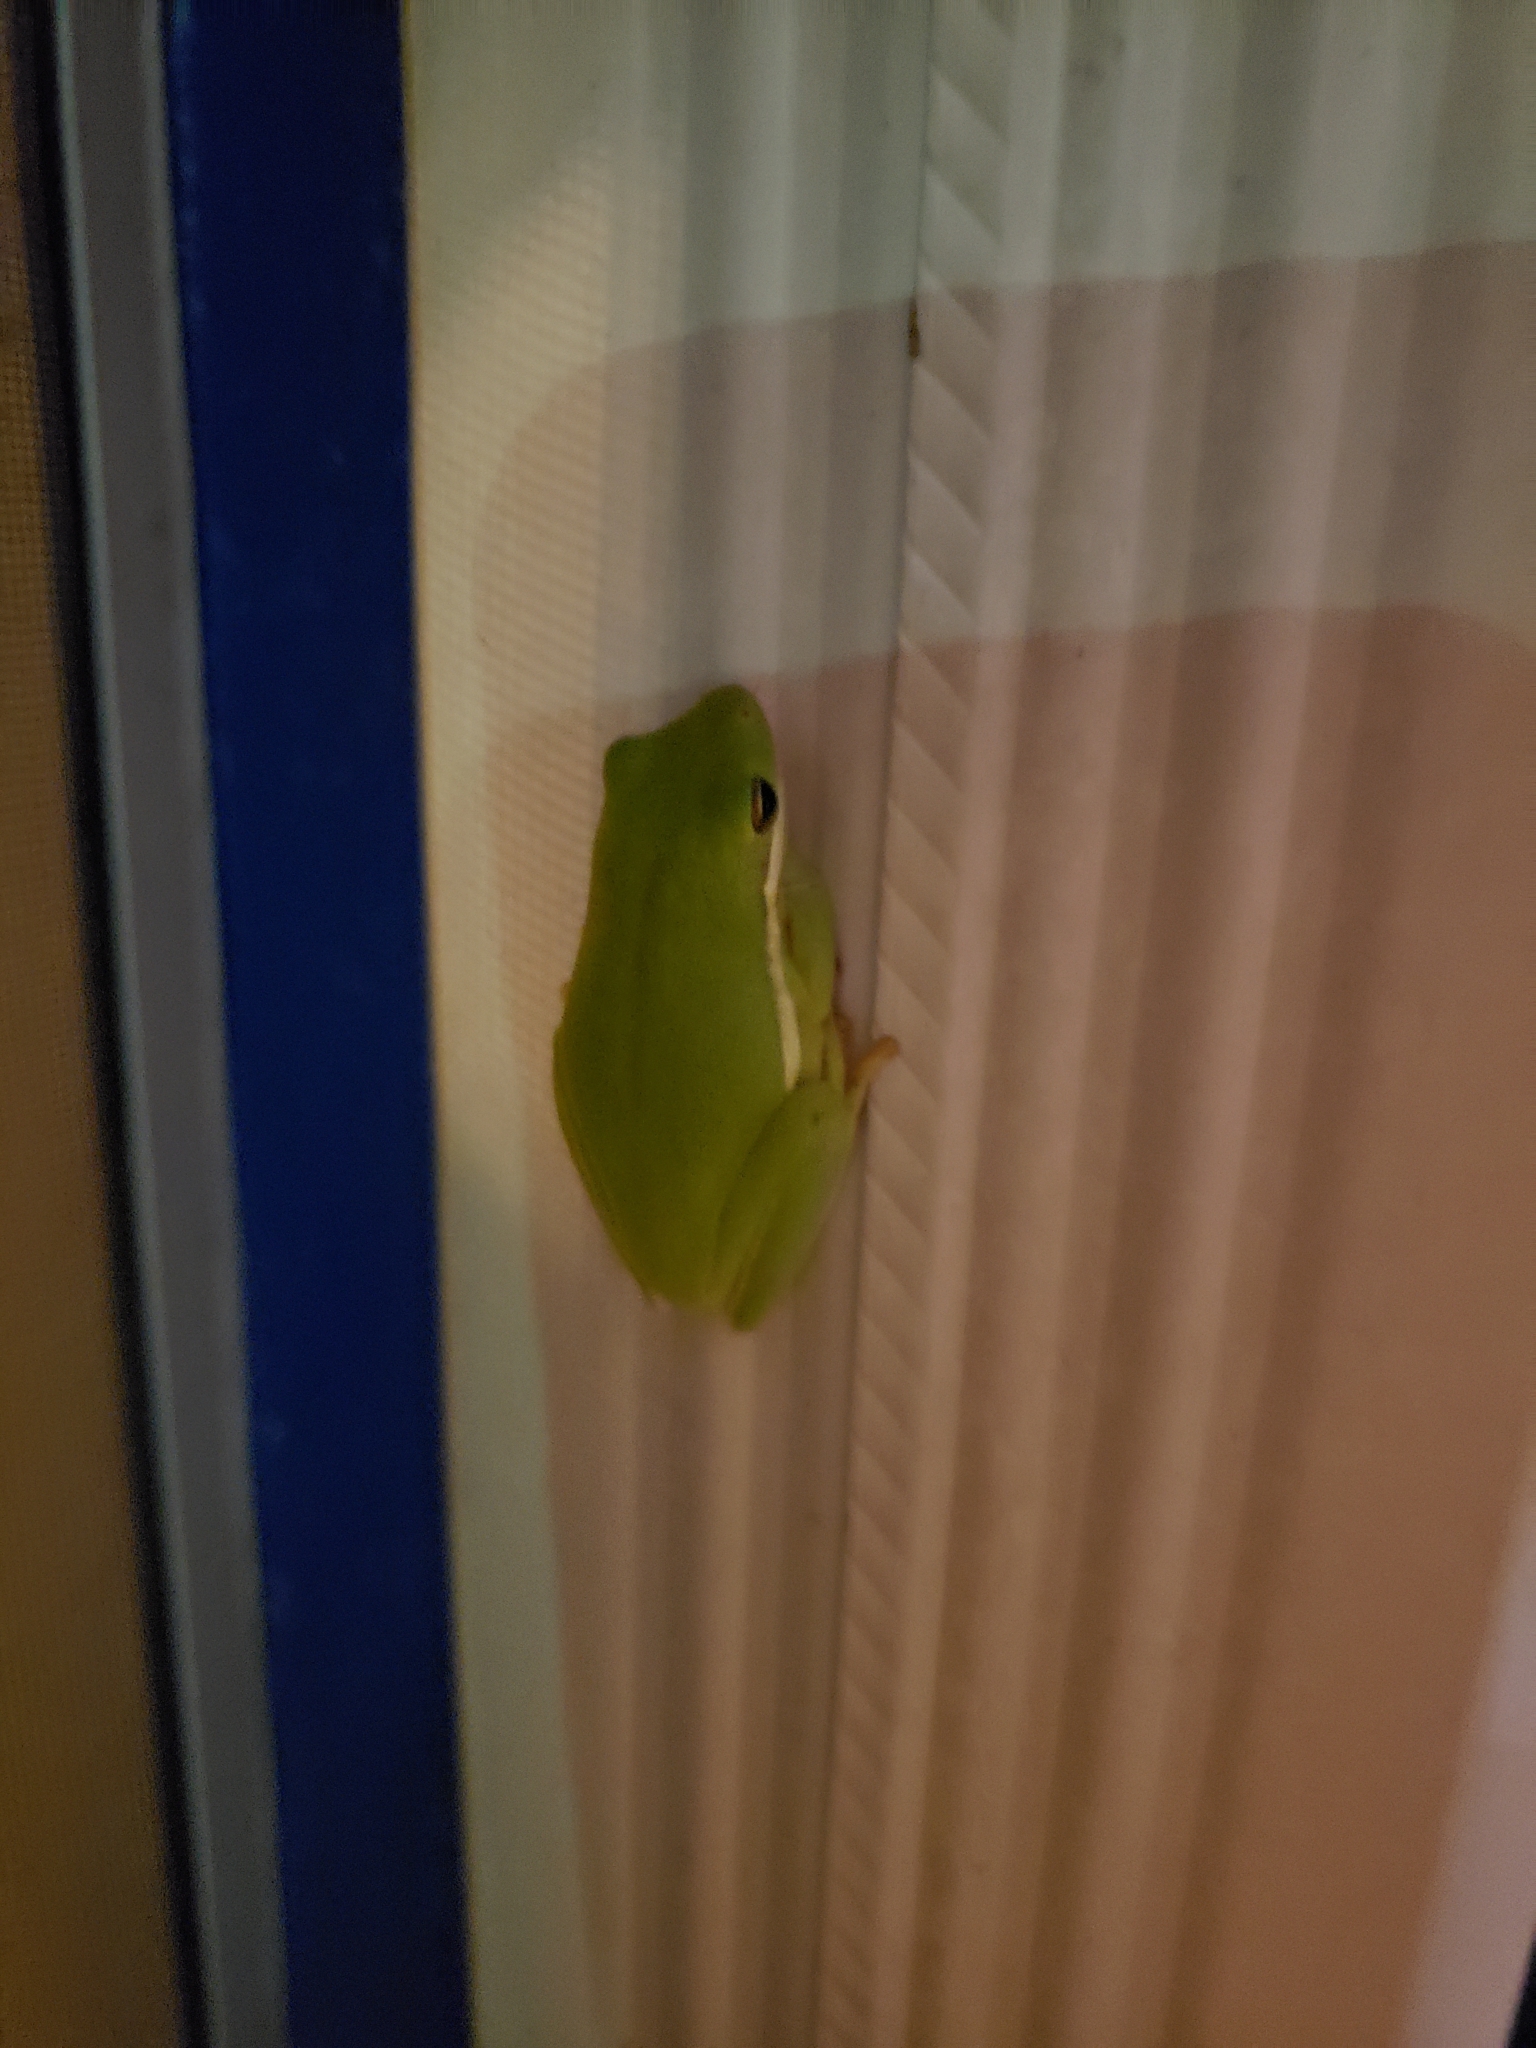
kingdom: Animalia
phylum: Chordata
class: Amphibia
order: Anura
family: Hylidae
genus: Dryophytes
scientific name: Dryophytes cinereus
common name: Green treefrog
